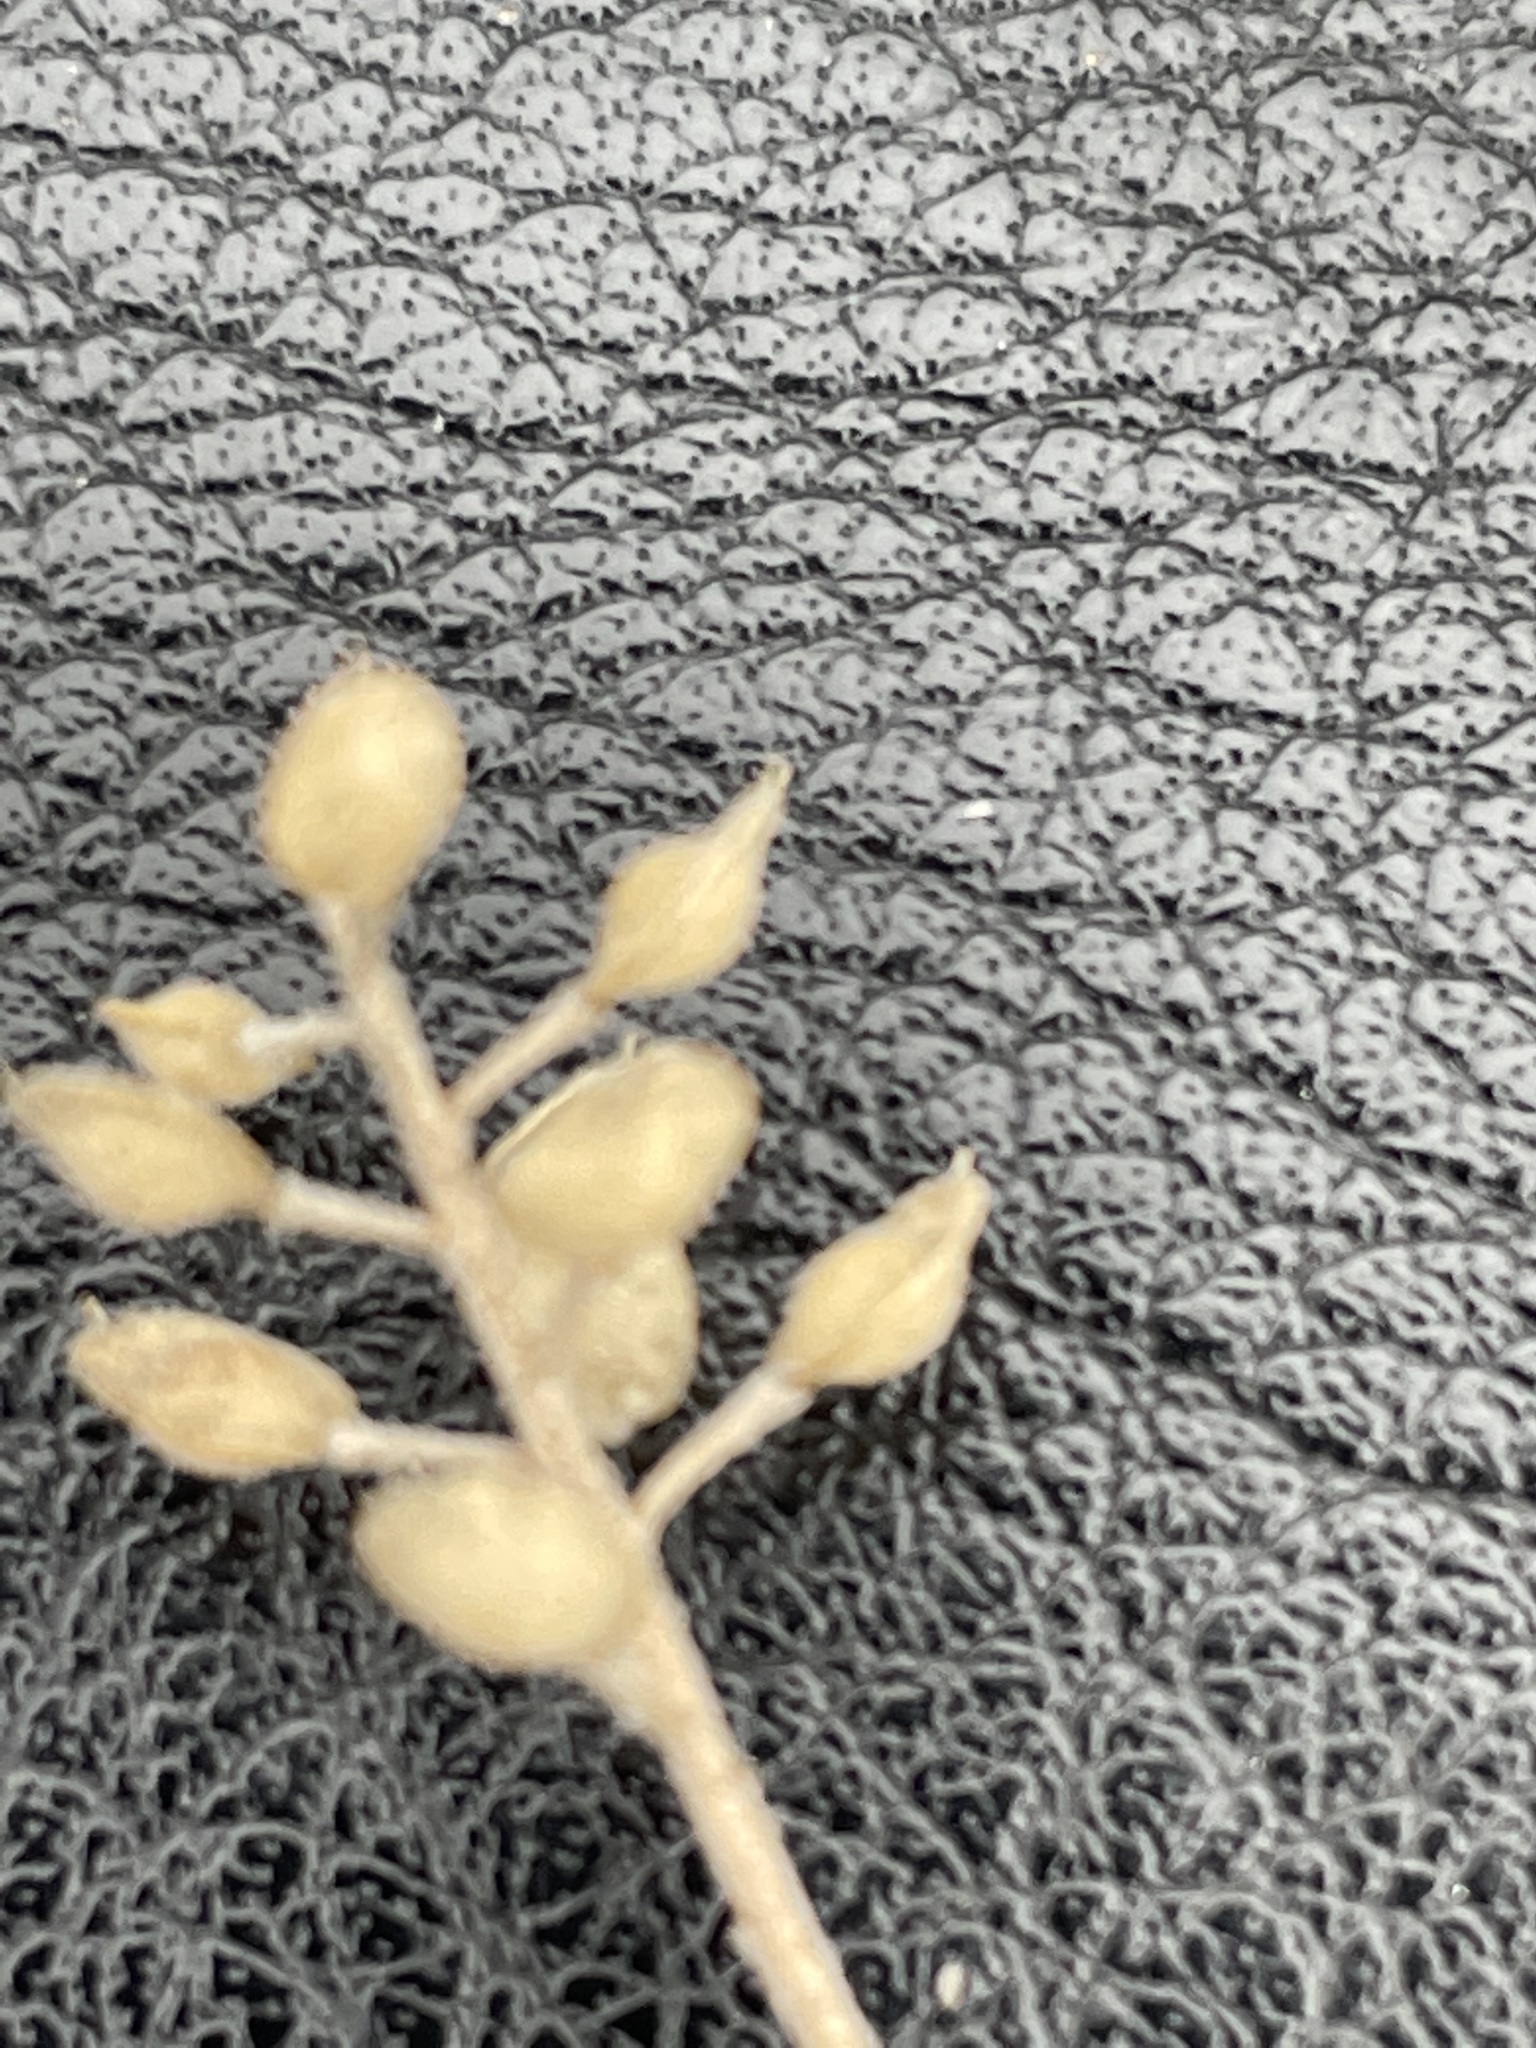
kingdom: Plantae
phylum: Tracheophyta
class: Magnoliopsida
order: Brassicales
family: Brassicaceae
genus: Alyssum
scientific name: Alyssum turkestanicum
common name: Desert alyssum
